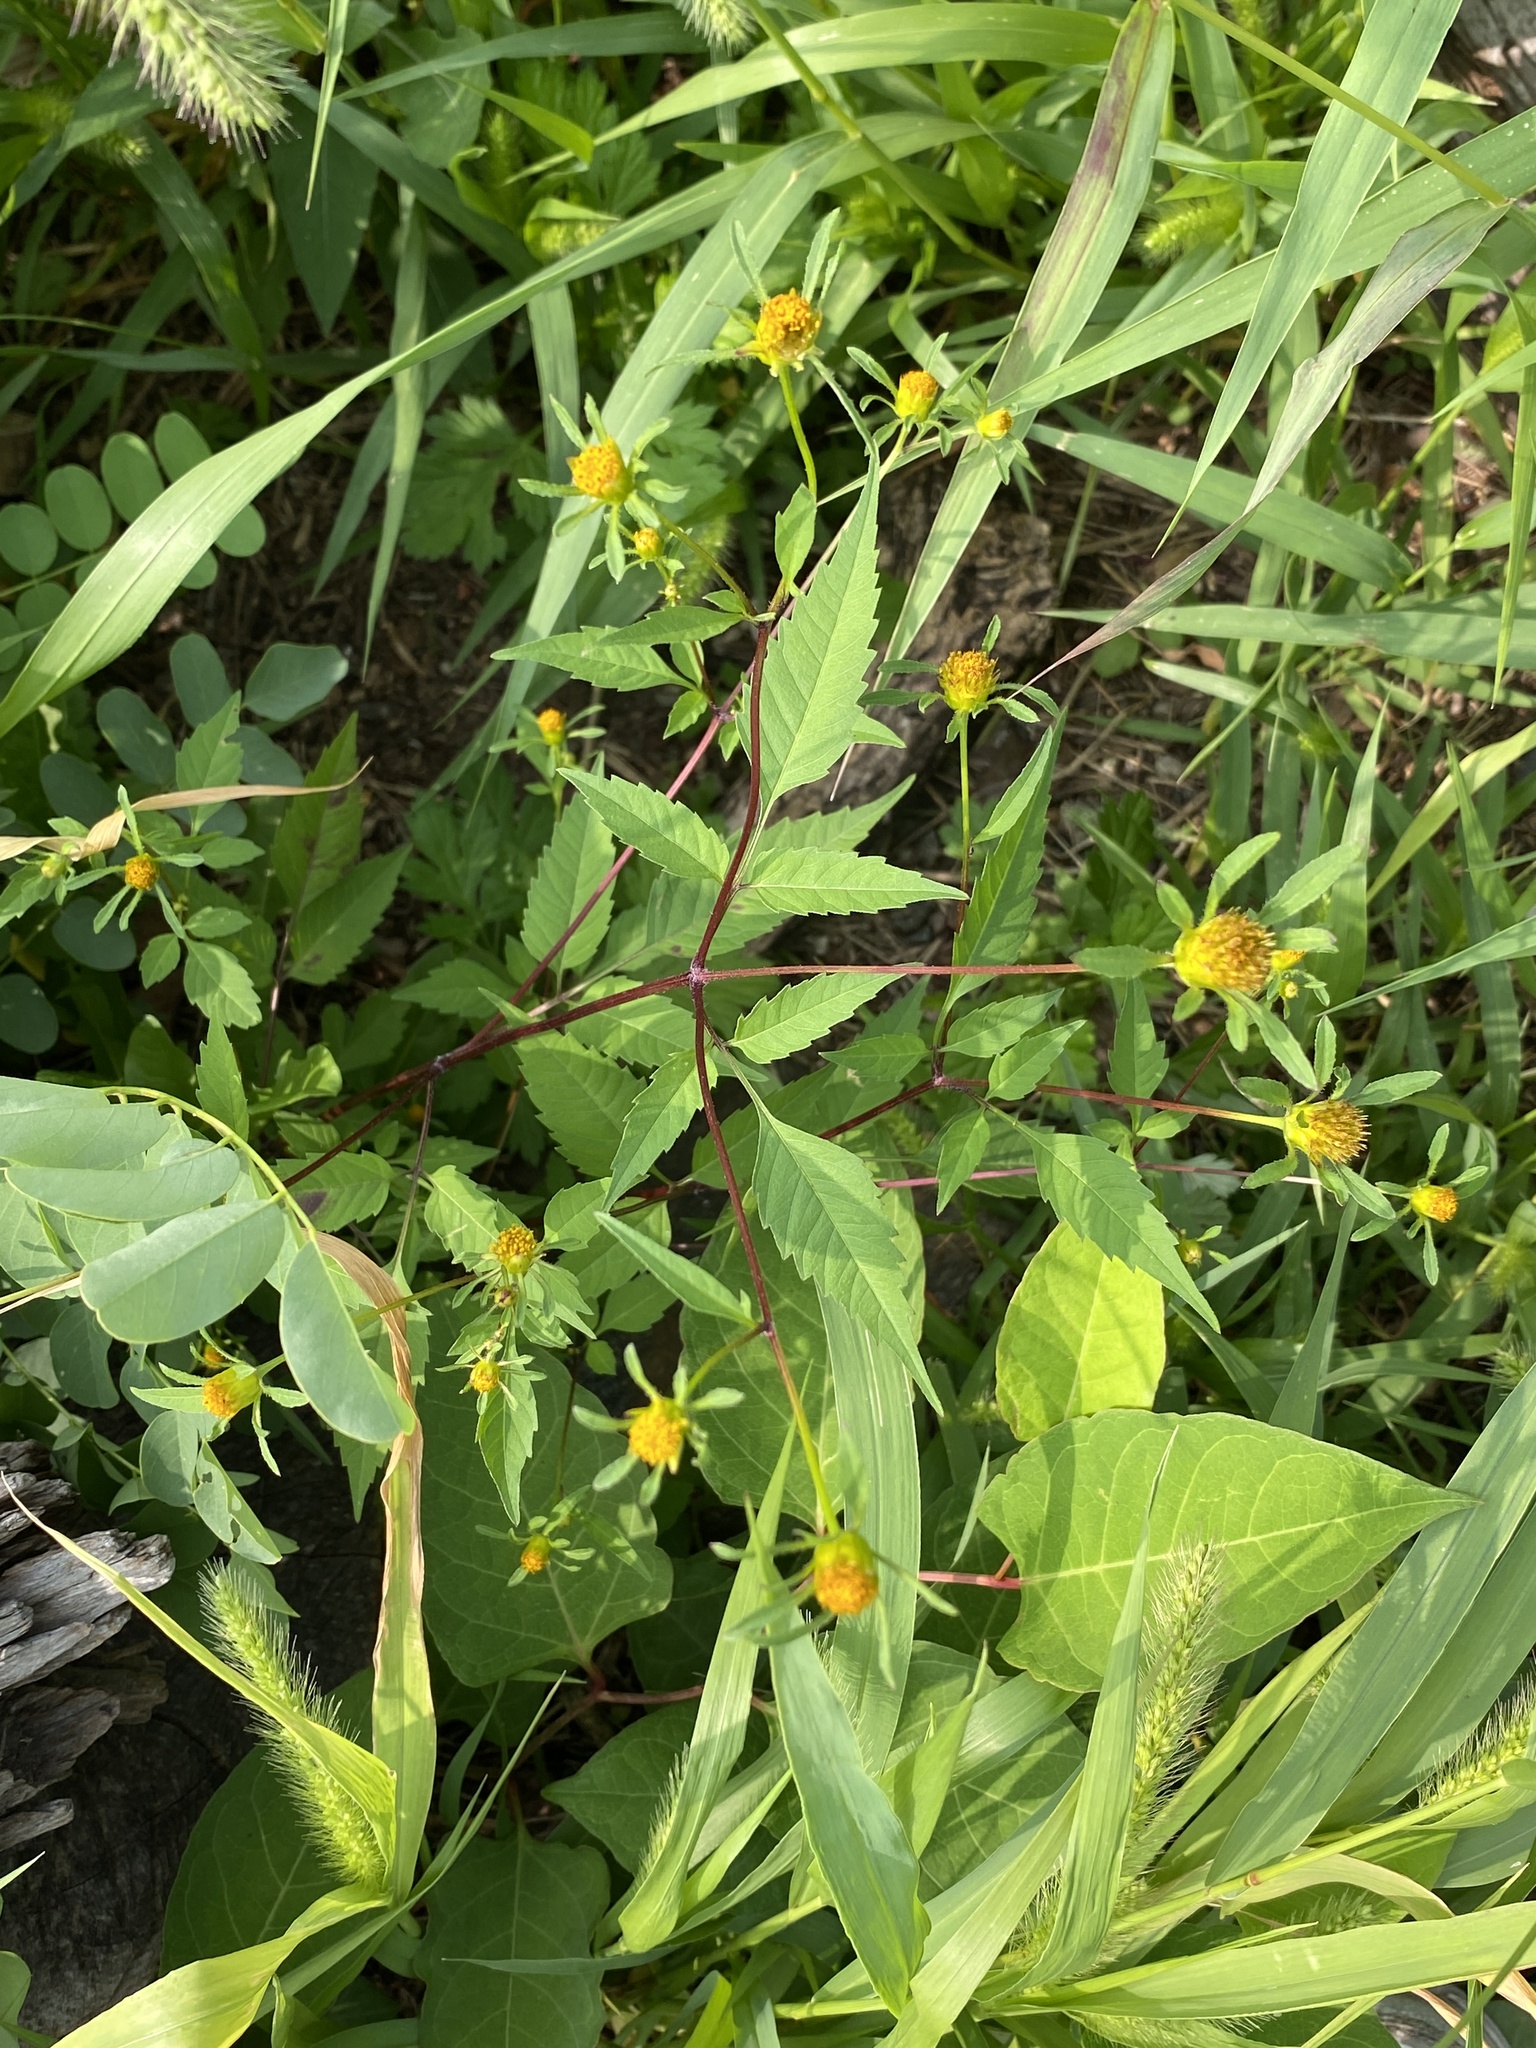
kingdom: Plantae
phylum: Tracheophyta
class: Magnoliopsida
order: Asterales
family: Asteraceae
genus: Bidens
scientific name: Bidens frondosa
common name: Beggarticks
